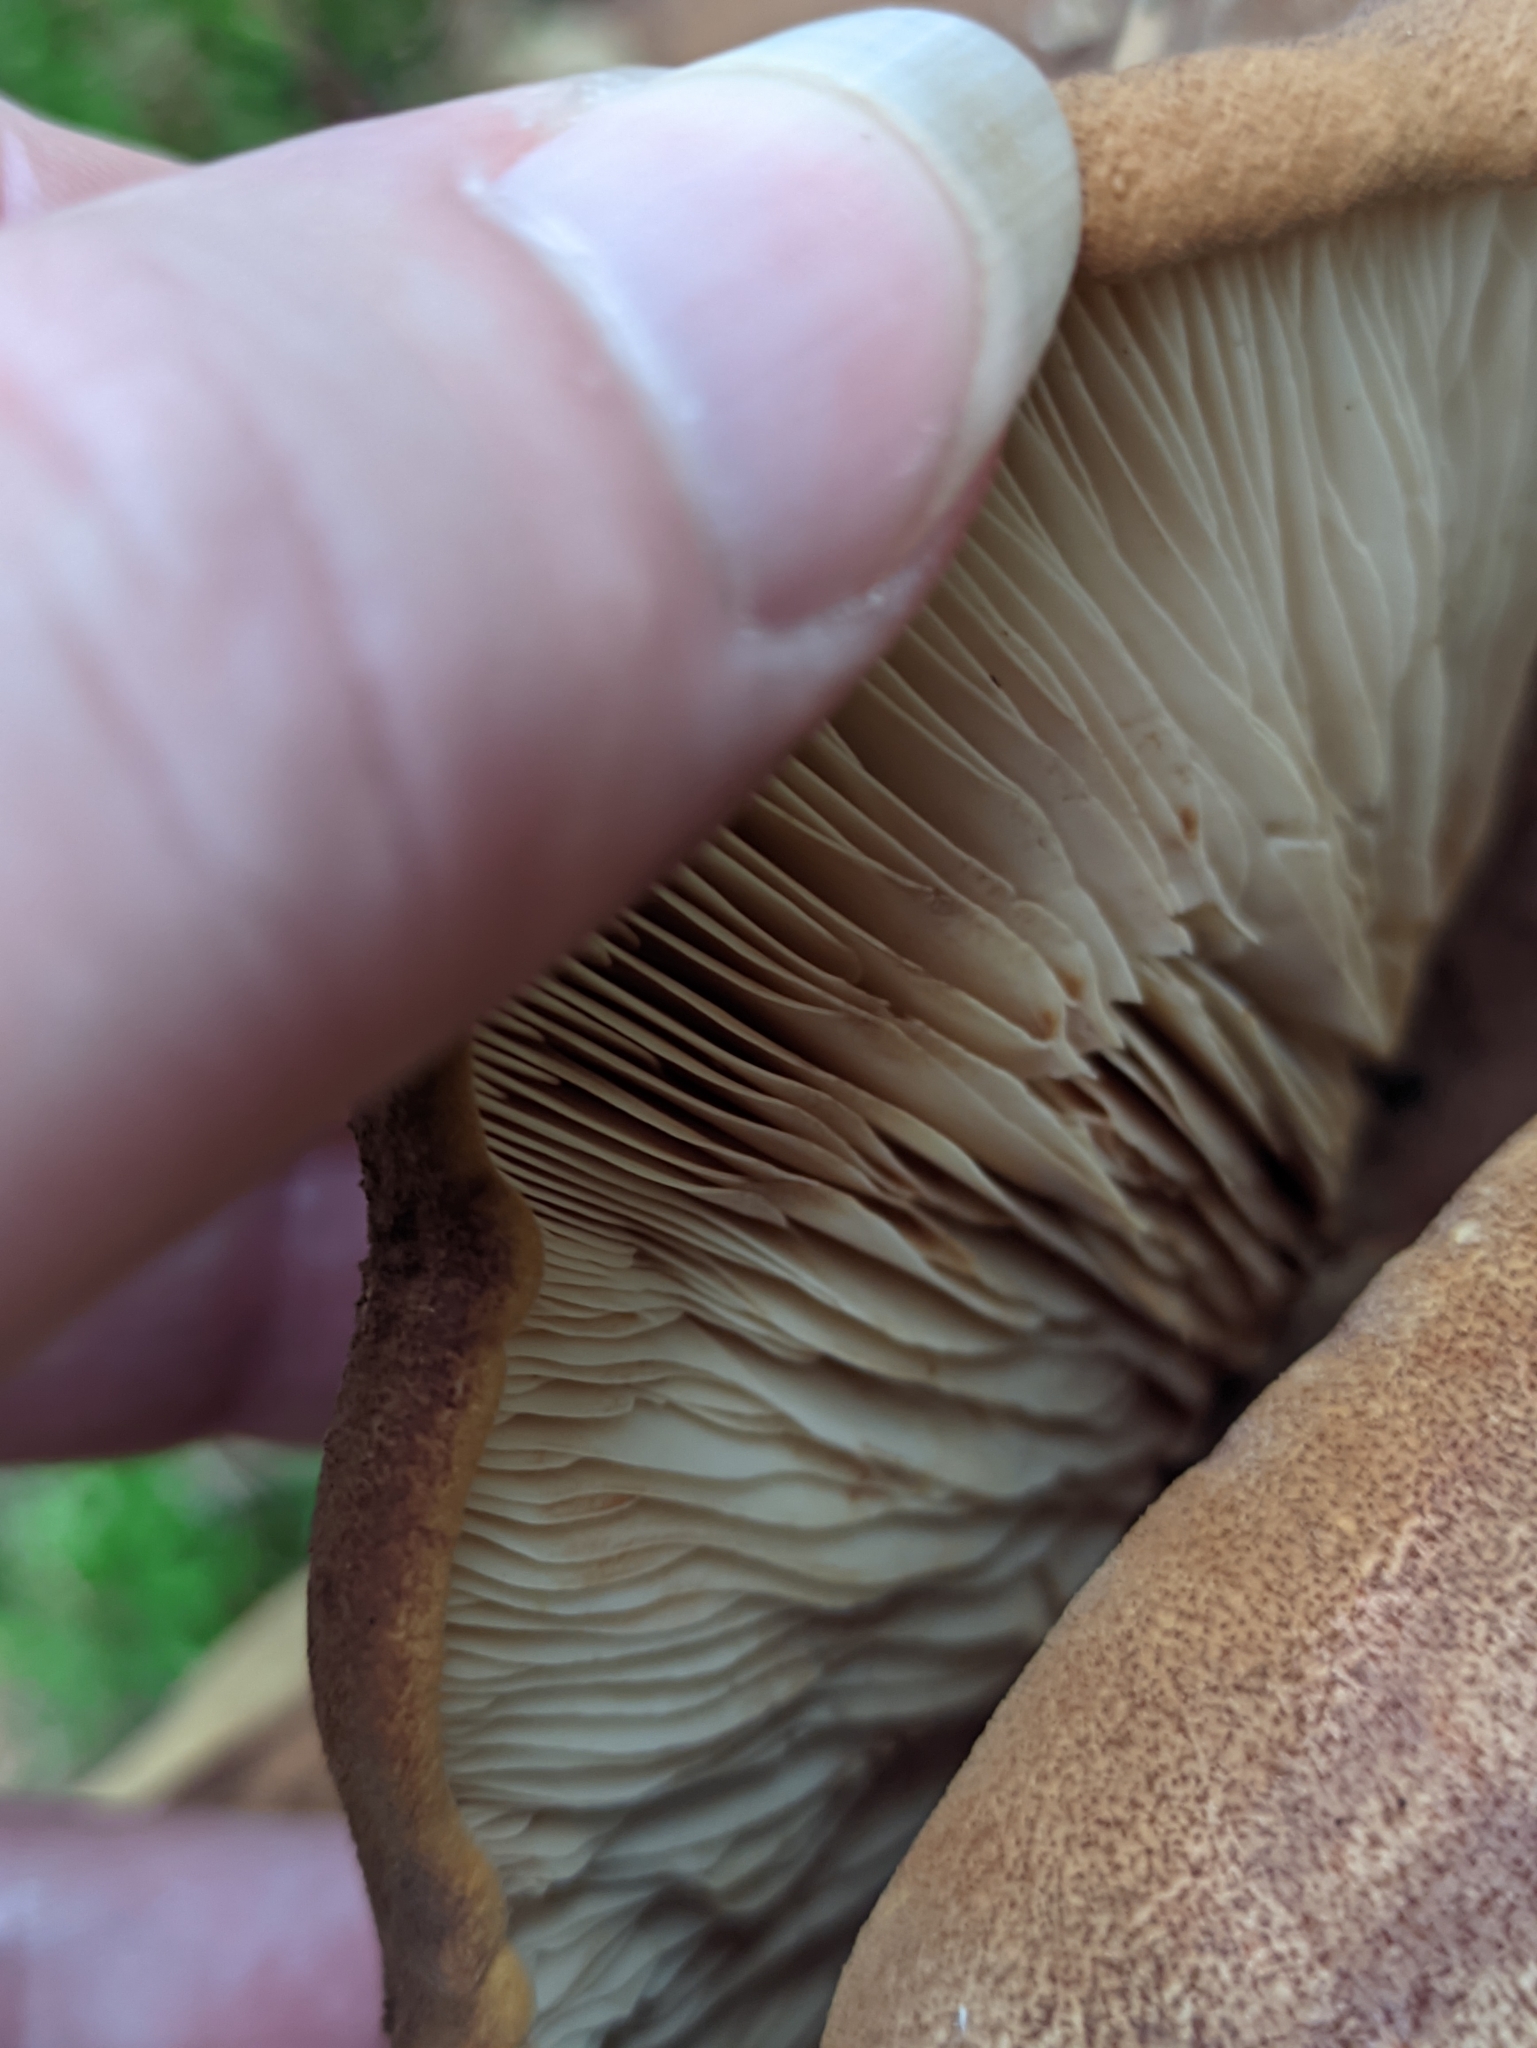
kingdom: Fungi
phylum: Basidiomycota
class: Agaricomycetes
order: Boletales
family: Tapinellaceae
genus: Tapinella
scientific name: Tapinella atrotomentosa
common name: Velvet rollrim
